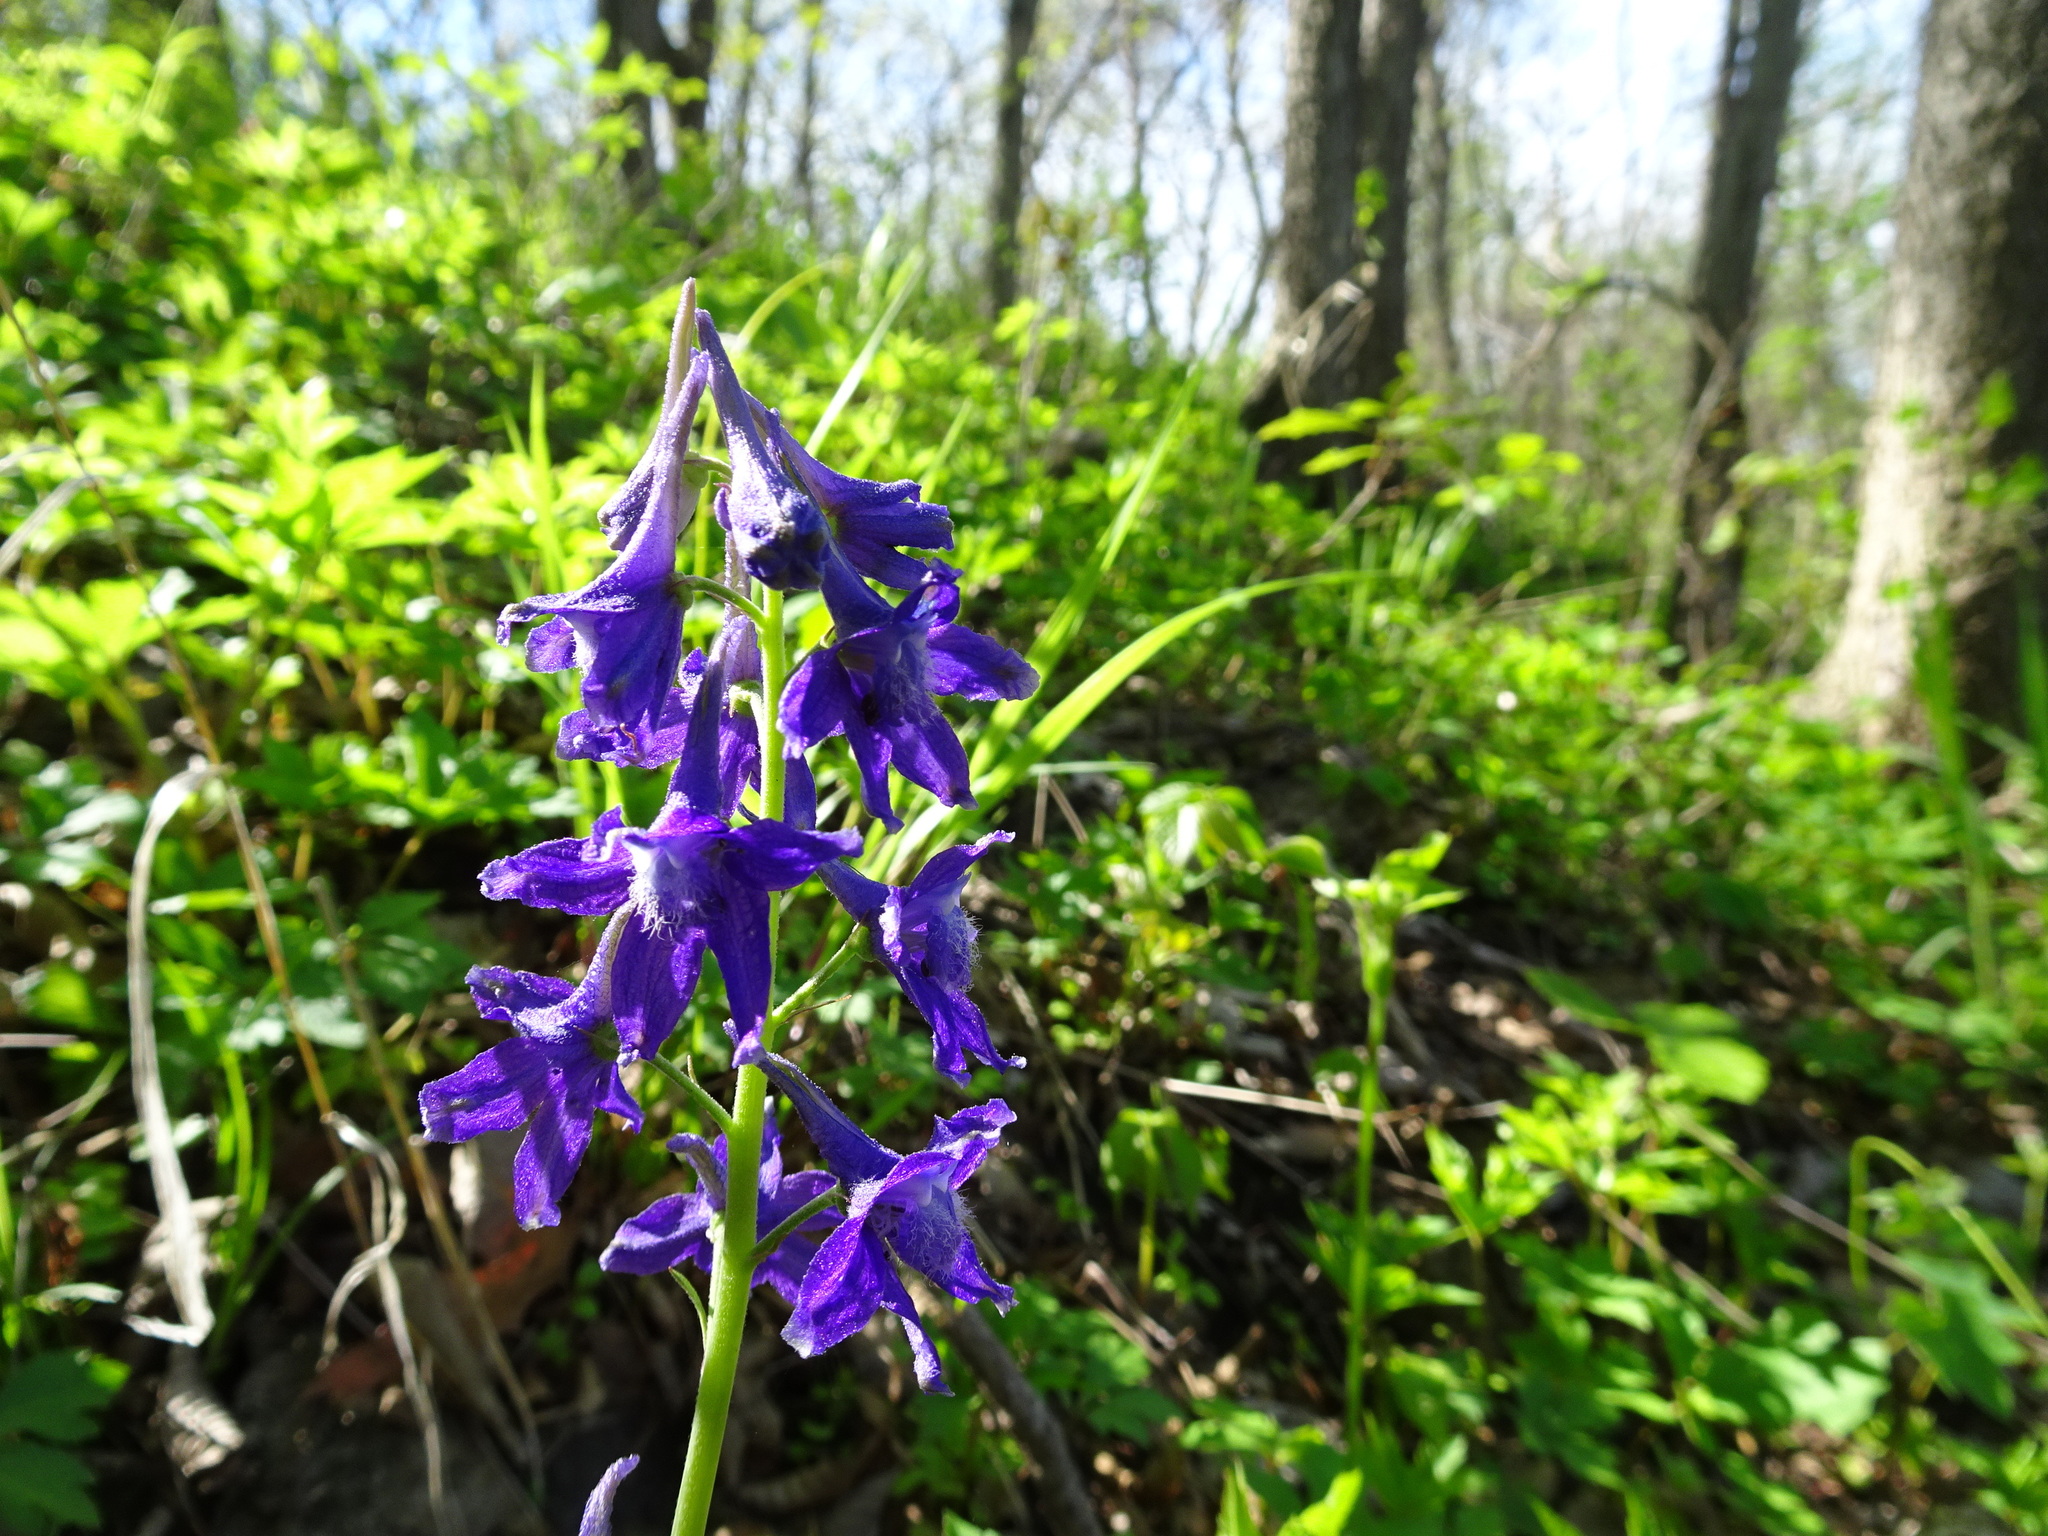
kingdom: Plantae
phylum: Tracheophyta
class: Magnoliopsida
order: Ranunculales
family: Ranunculaceae
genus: Delphinium
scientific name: Delphinium tricorne
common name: Dwarf larkspur
